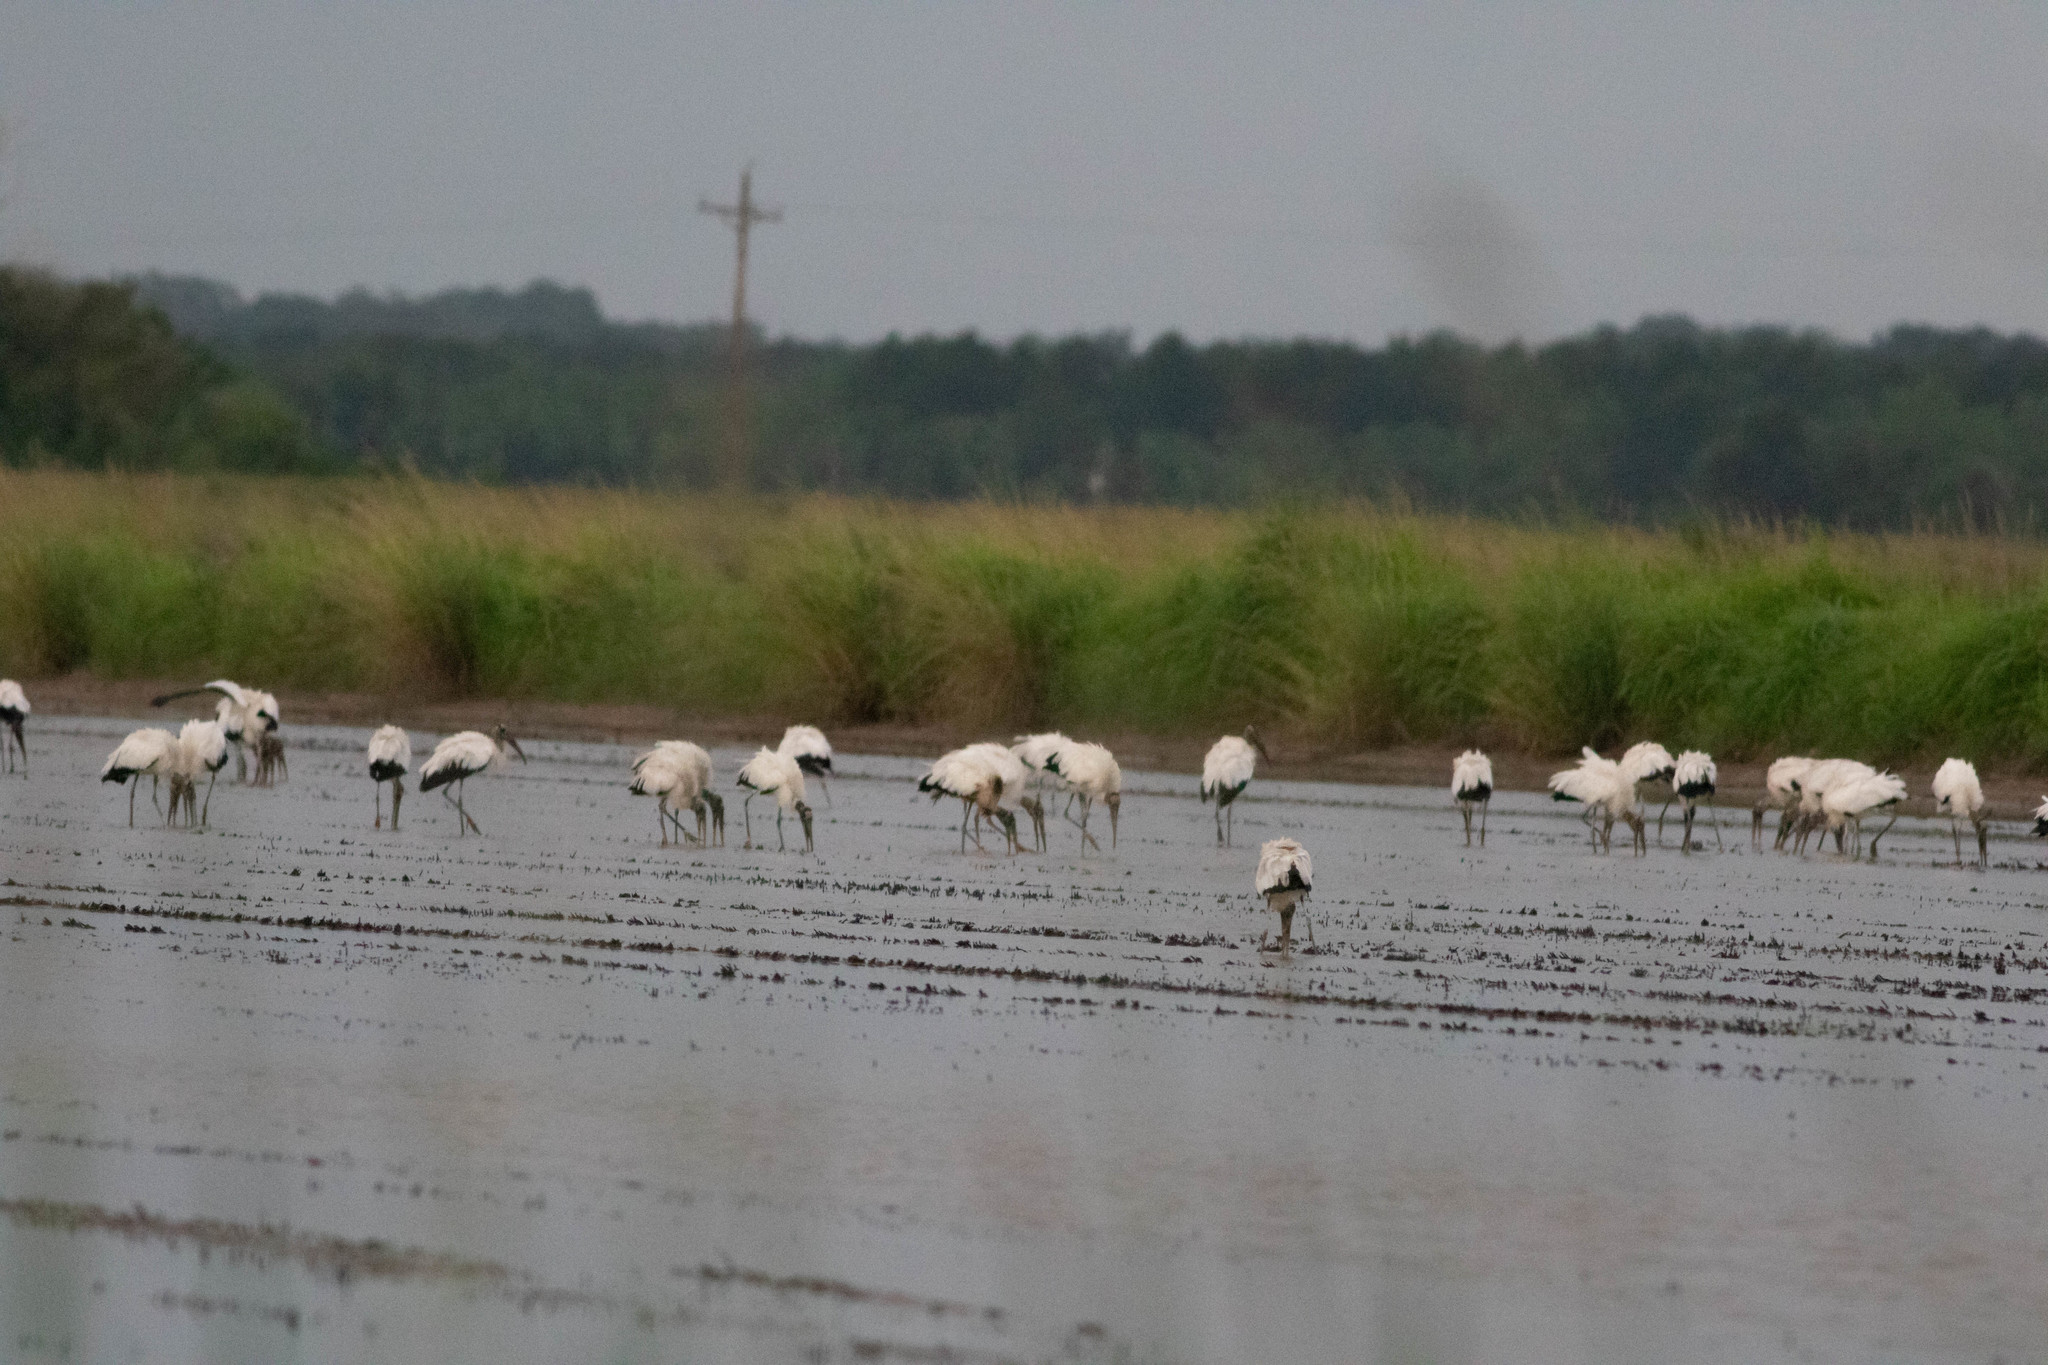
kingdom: Animalia
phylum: Chordata
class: Aves
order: Ciconiiformes
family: Ciconiidae
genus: Mycteria
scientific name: Mycteria americana
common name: Wood stork
